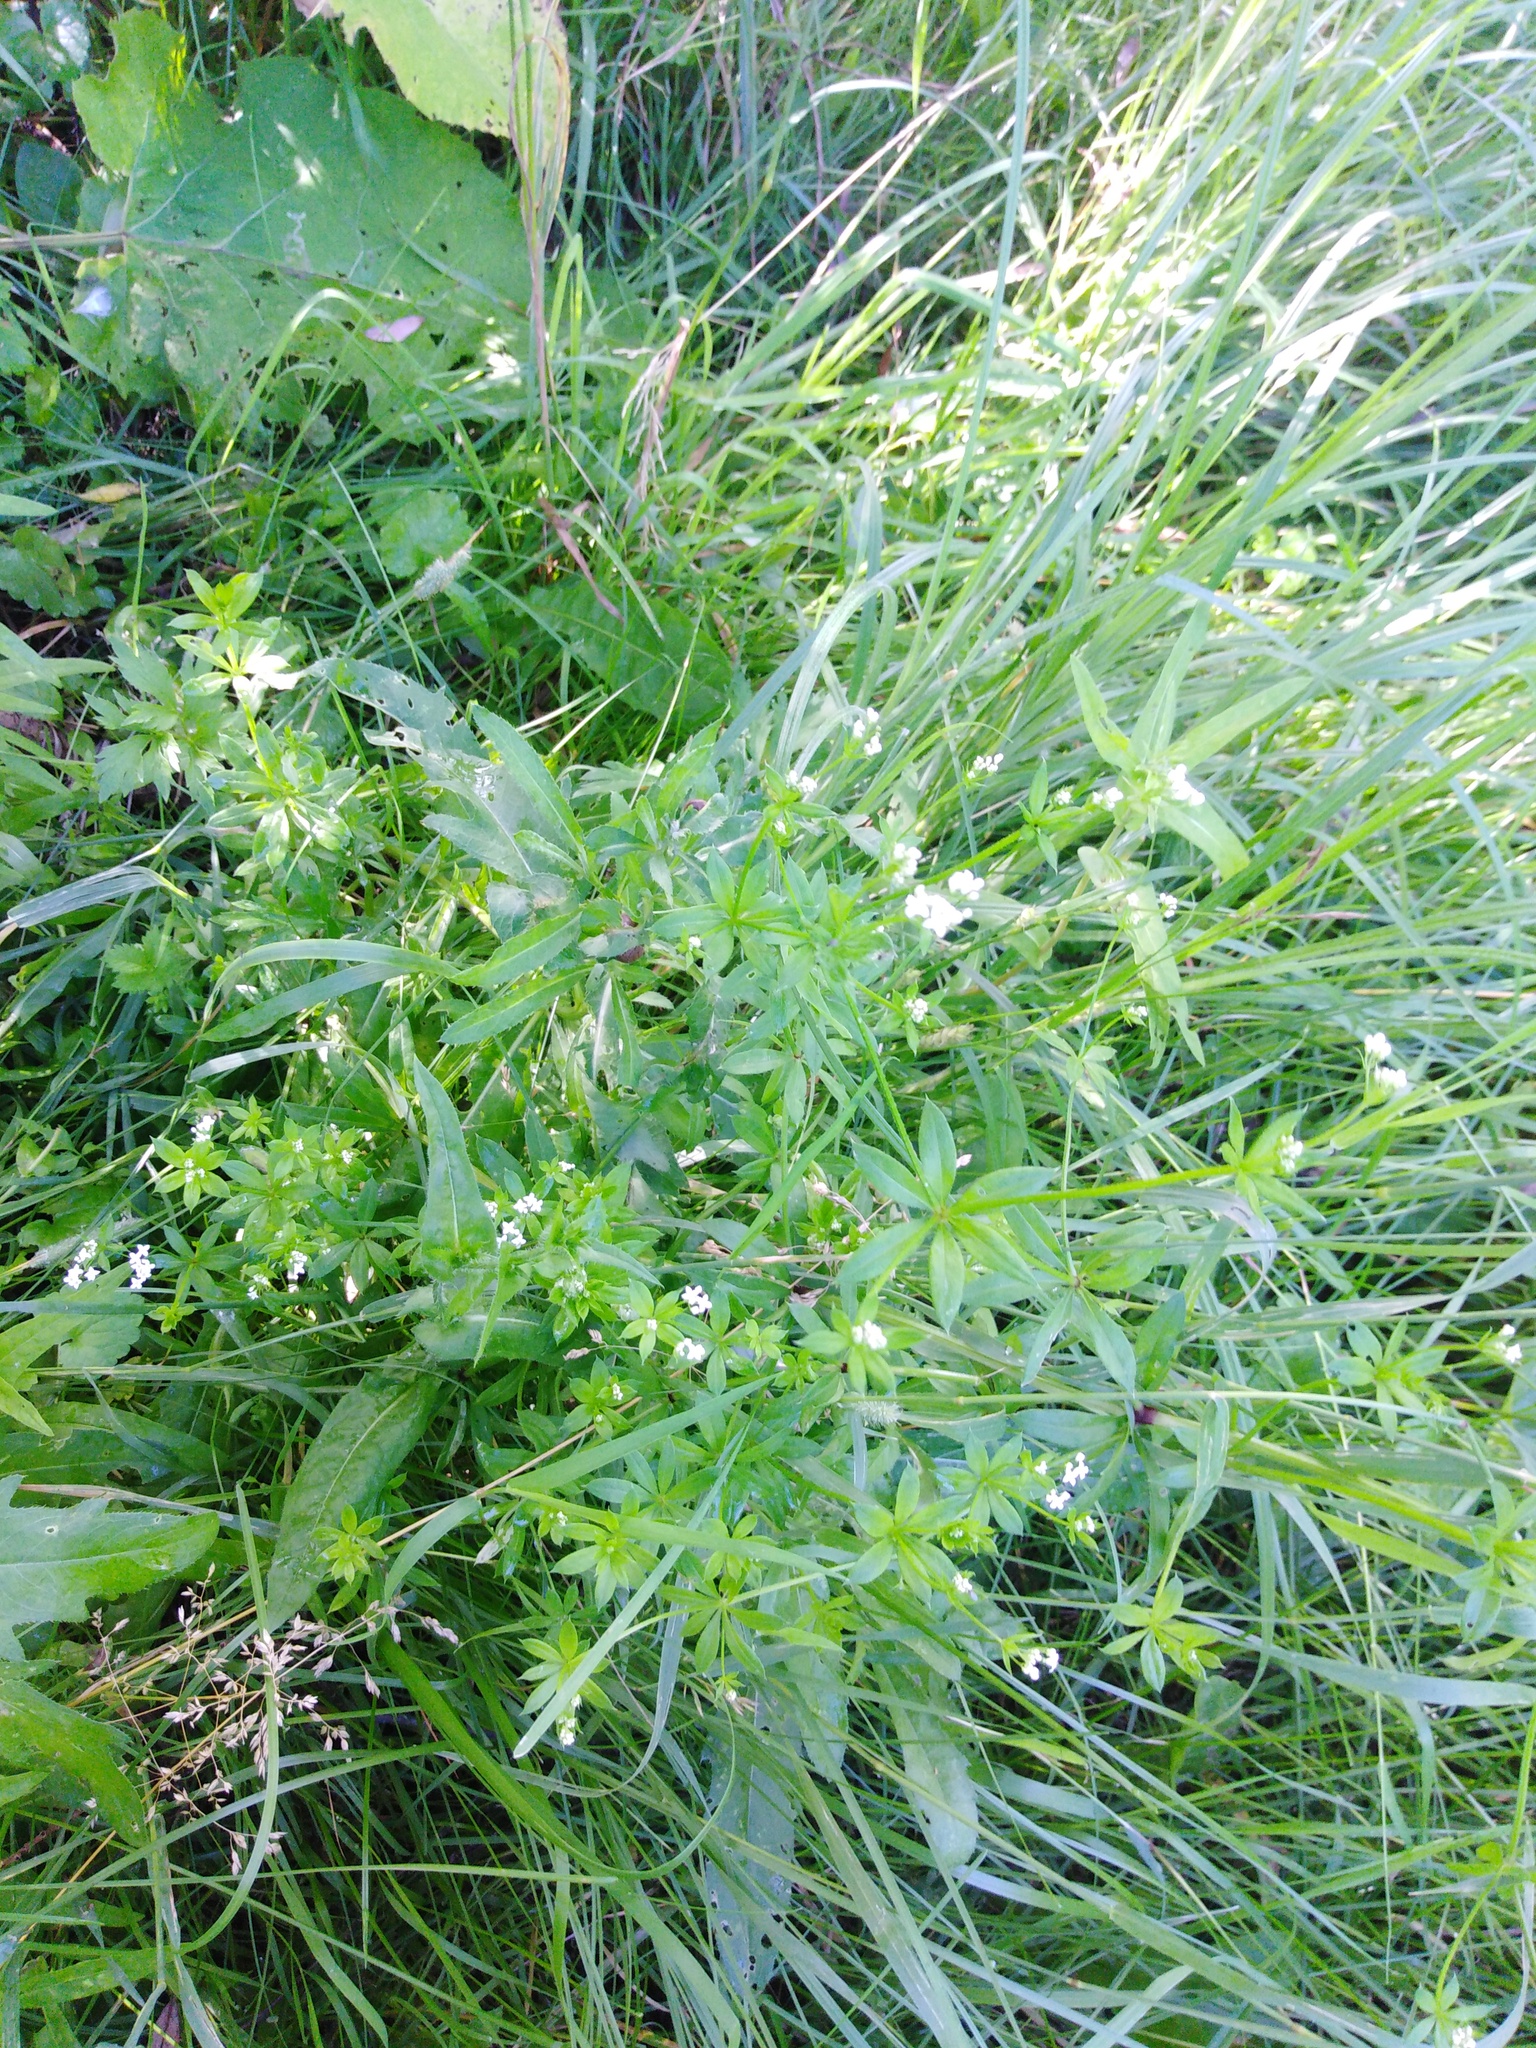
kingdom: Plantae
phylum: Tracheophyta
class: Magnoliopsida
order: Gentianales
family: Rubiaceae
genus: Galium
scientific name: Galium pseudorivale
